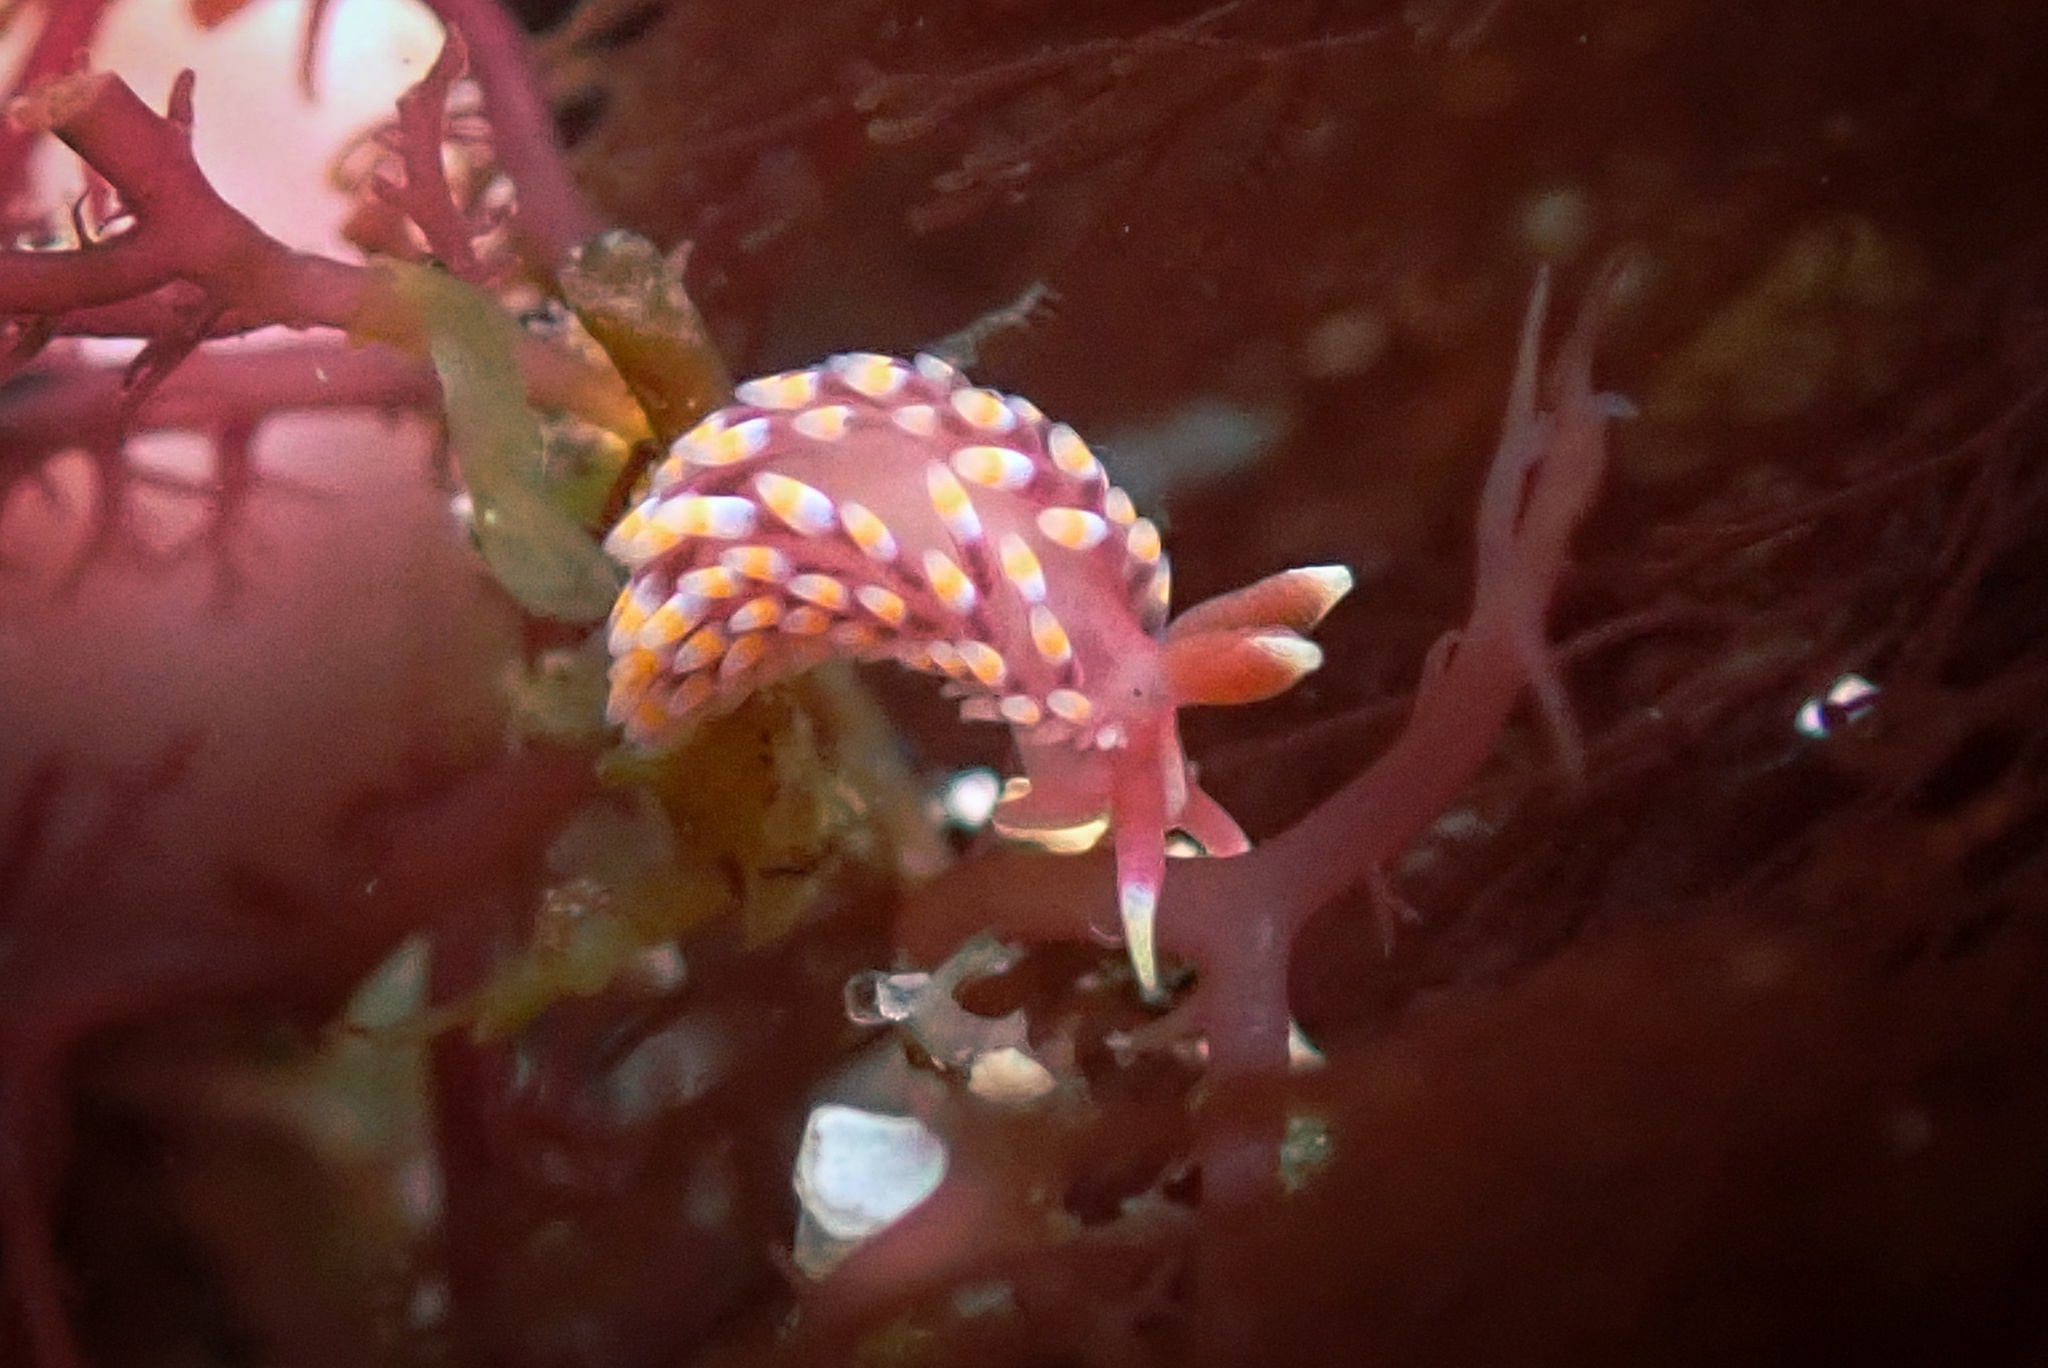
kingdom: Animalia
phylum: Mollusca
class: Gastropoda
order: Nudibranchia
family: Babakinidae
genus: Babakina
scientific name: Babakina festiva
